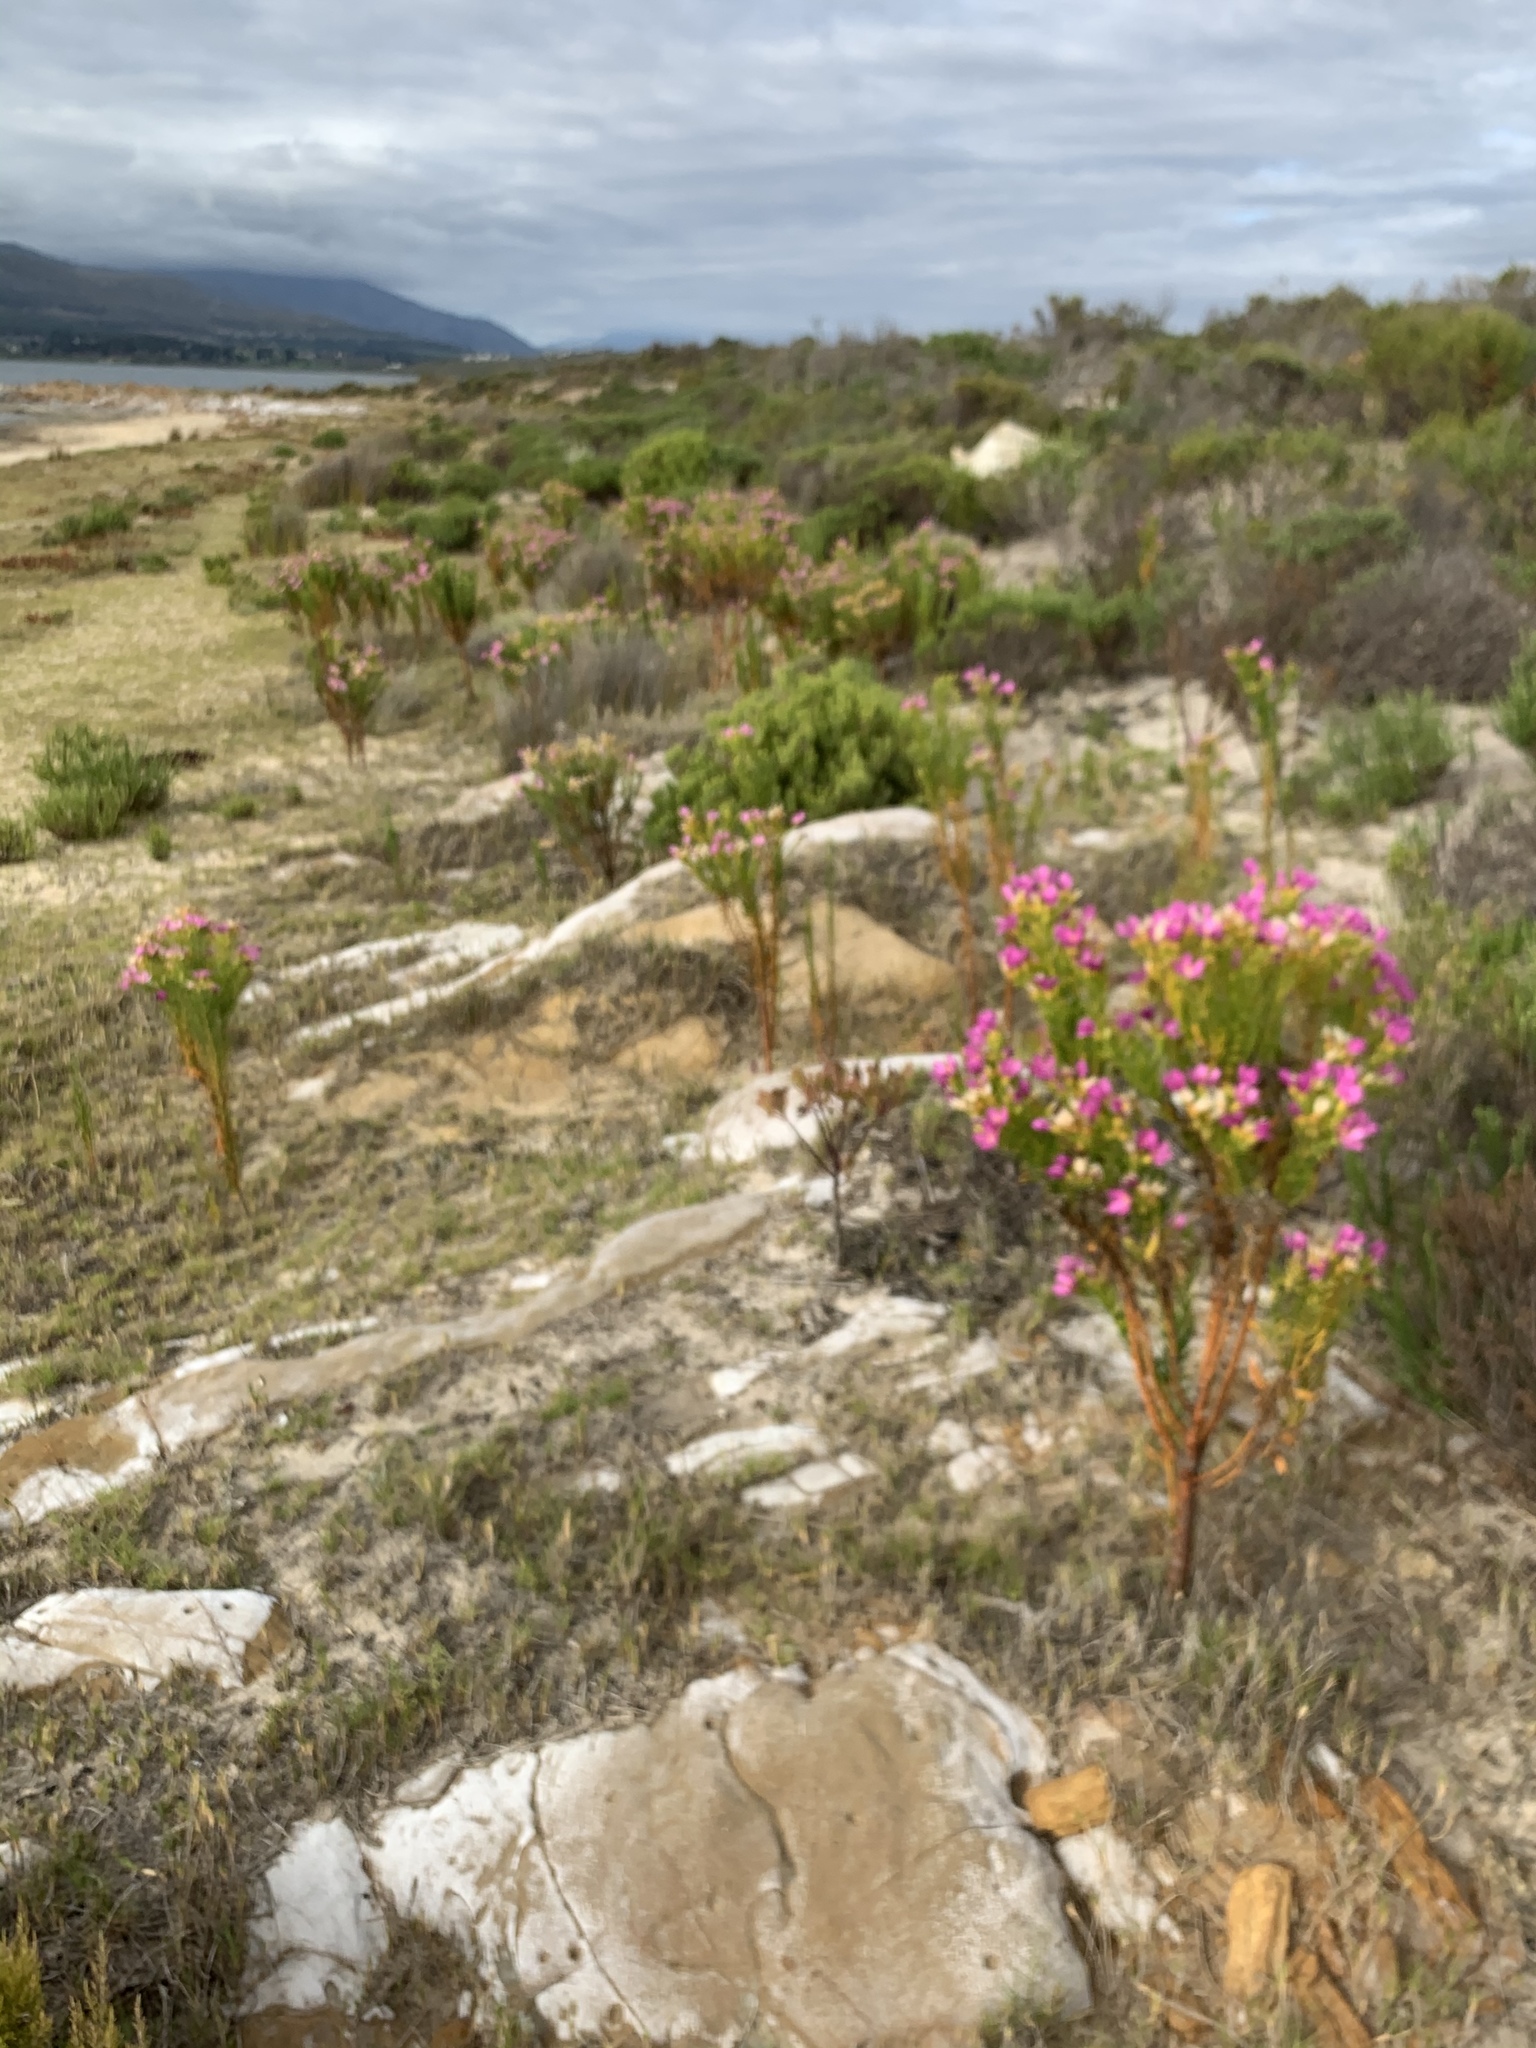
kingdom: Plantae
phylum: Tracheophyta
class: Magnoliopsida
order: Gentianales
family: Gentianaceae
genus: Orphium
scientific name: Orphium frutescens
